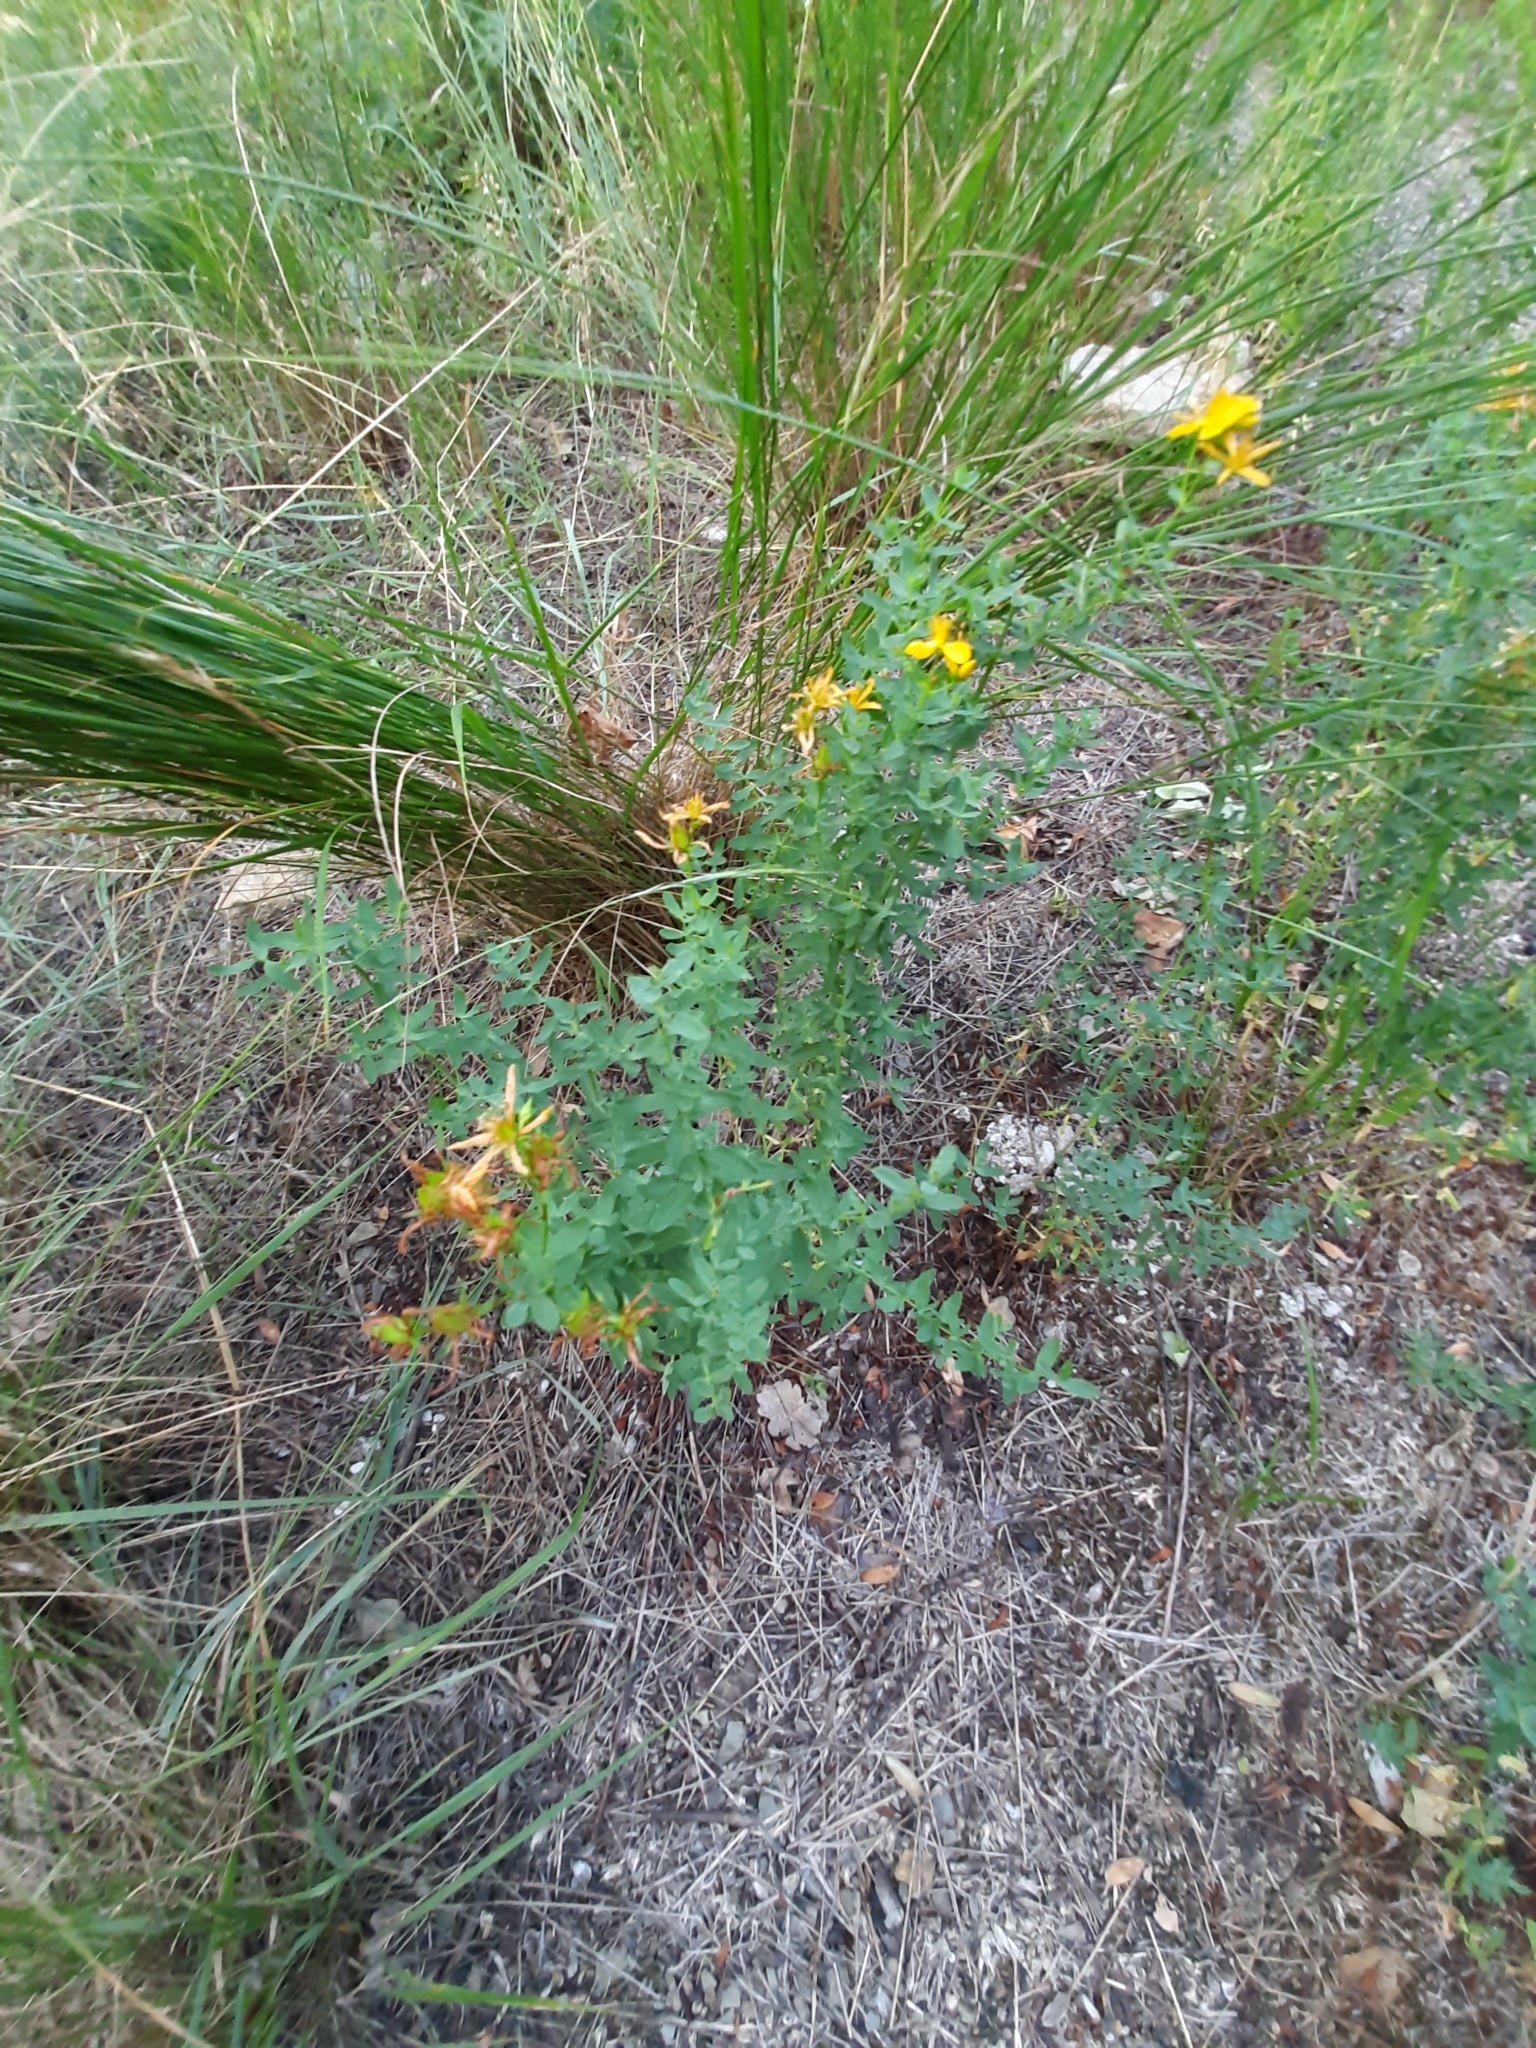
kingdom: Plantae
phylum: Tracheophyta
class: Magnoliopsida
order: Malpighiales
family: Hypericaceae
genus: Hypericum
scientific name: Hypericum perforatum
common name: Common st. johnswort
